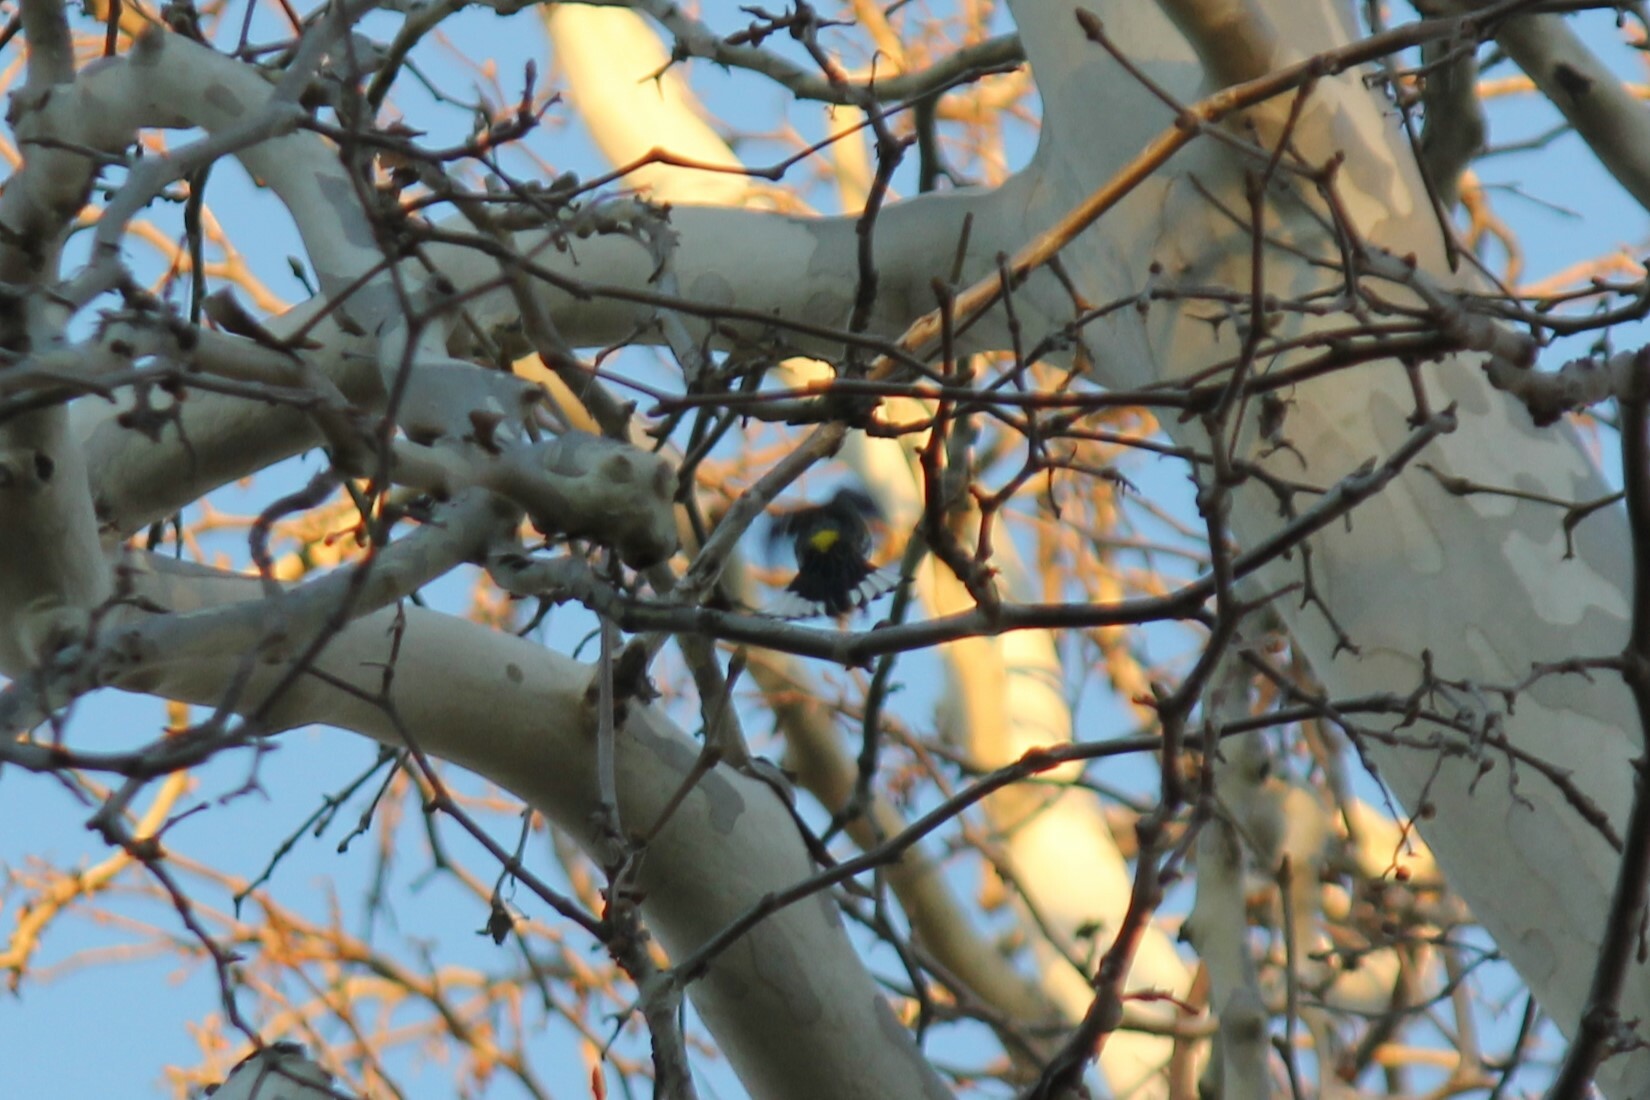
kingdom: Animalia
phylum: Chordata
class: Aves
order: Passeriformes
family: Parulidae
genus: Setophaga
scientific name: Setophaga coronata
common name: Myrtle warbler
